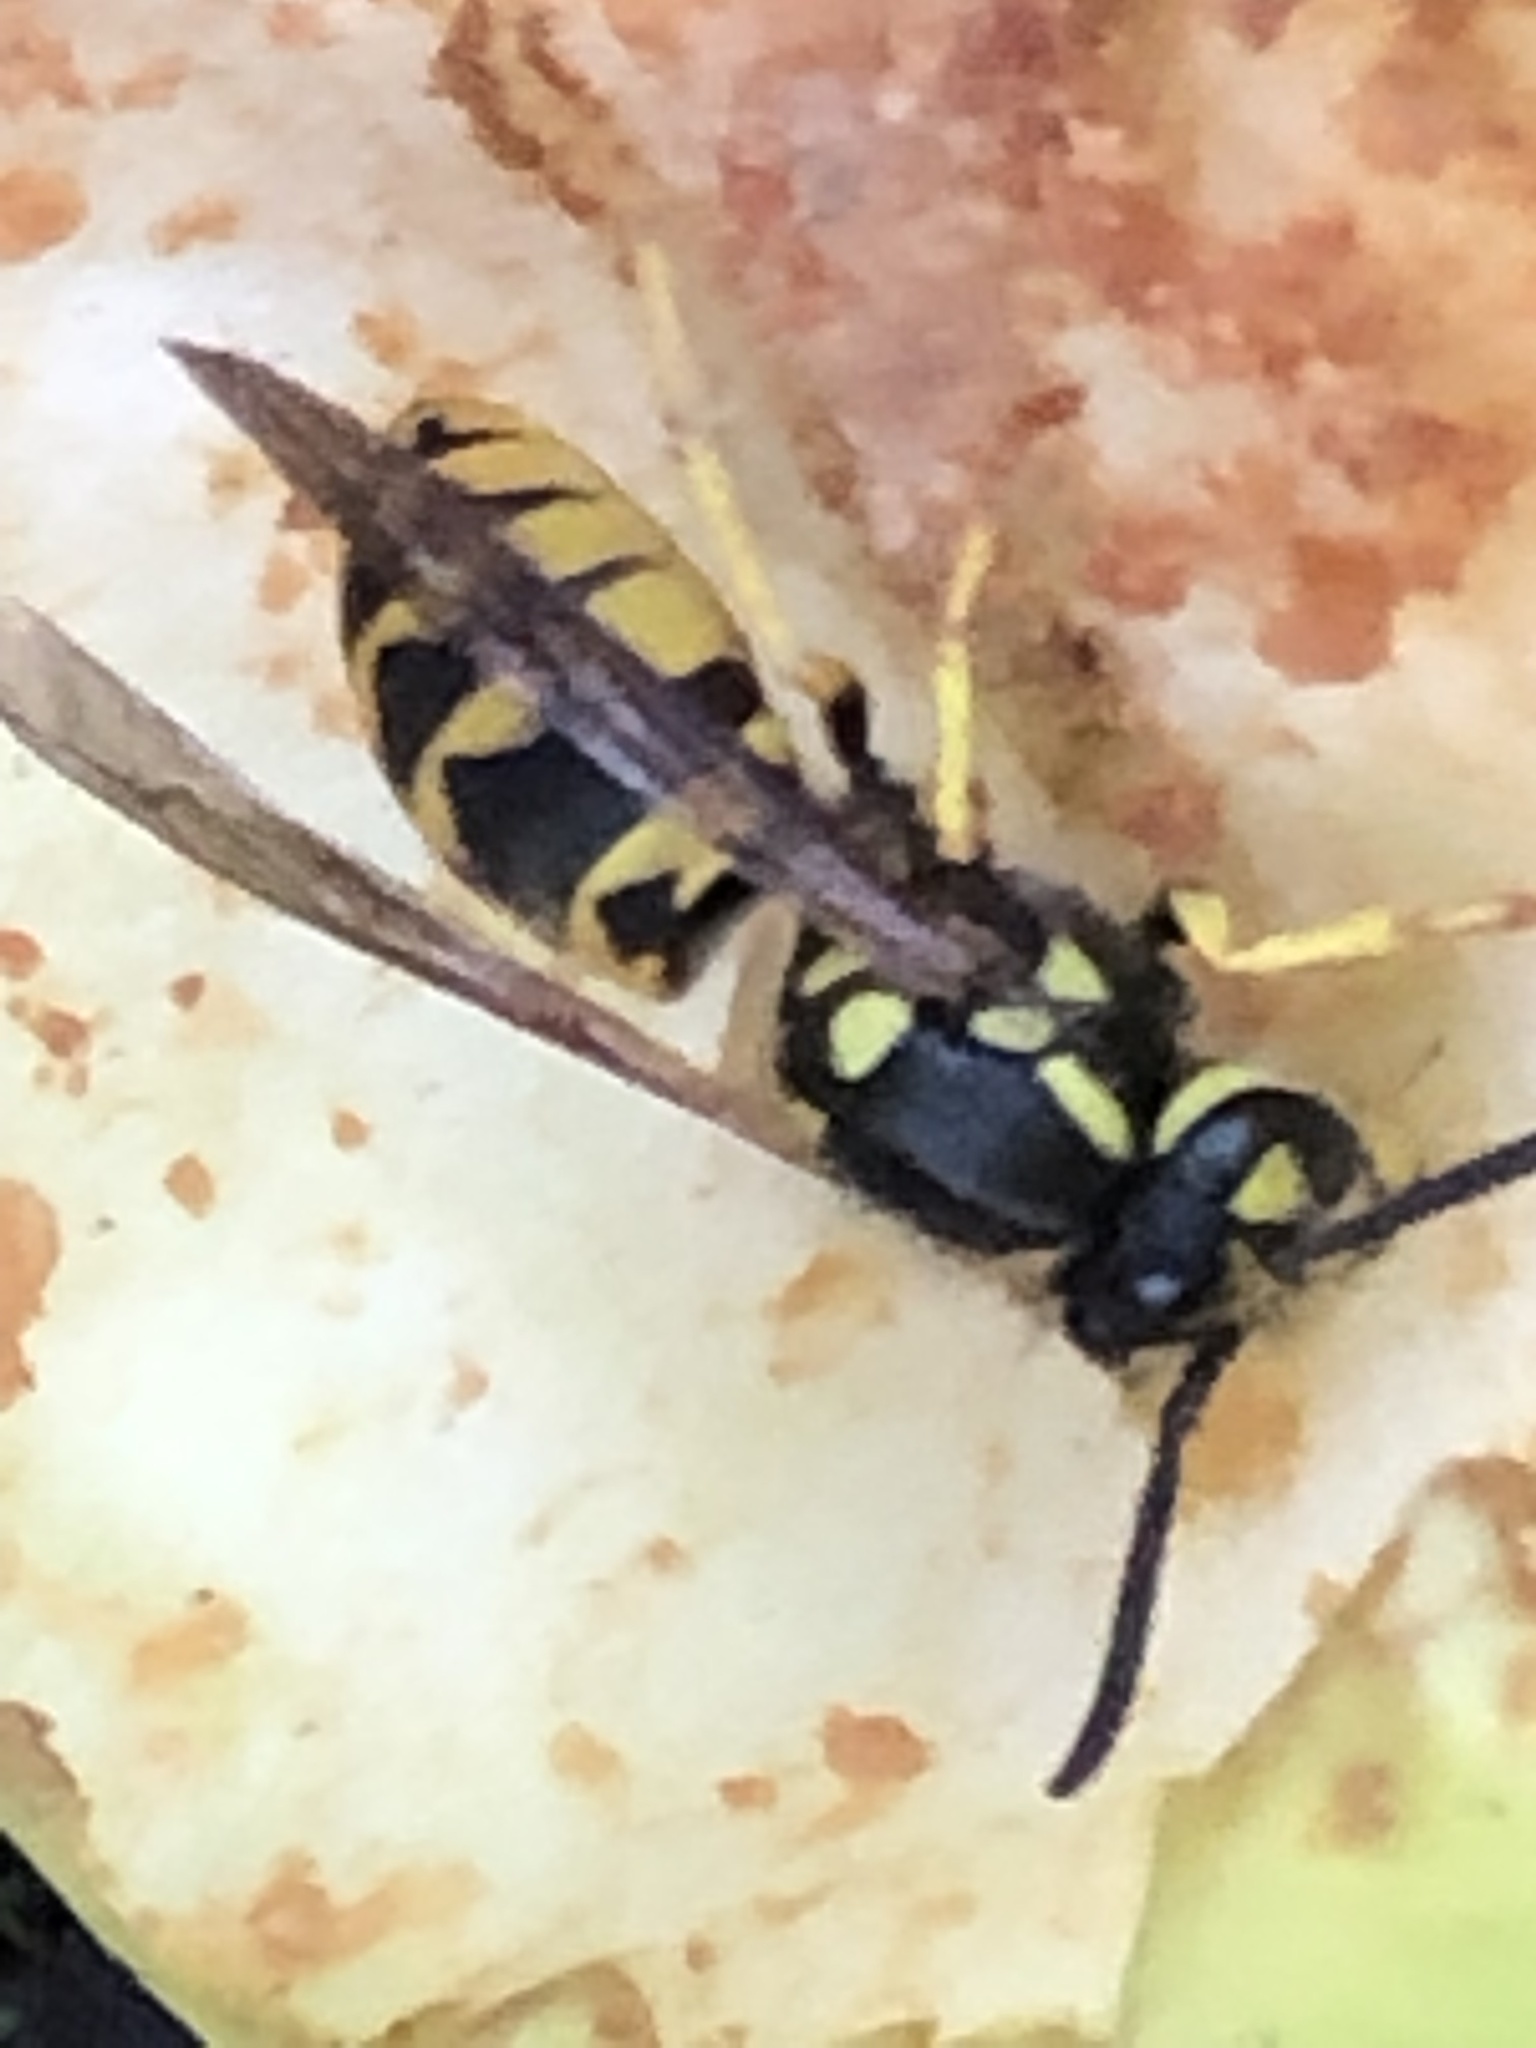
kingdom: Animalia
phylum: Arthropoda
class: Insecta
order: Hymenoptera
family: Vespidae
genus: Vespula
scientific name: Vespula germanica
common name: German wasp
